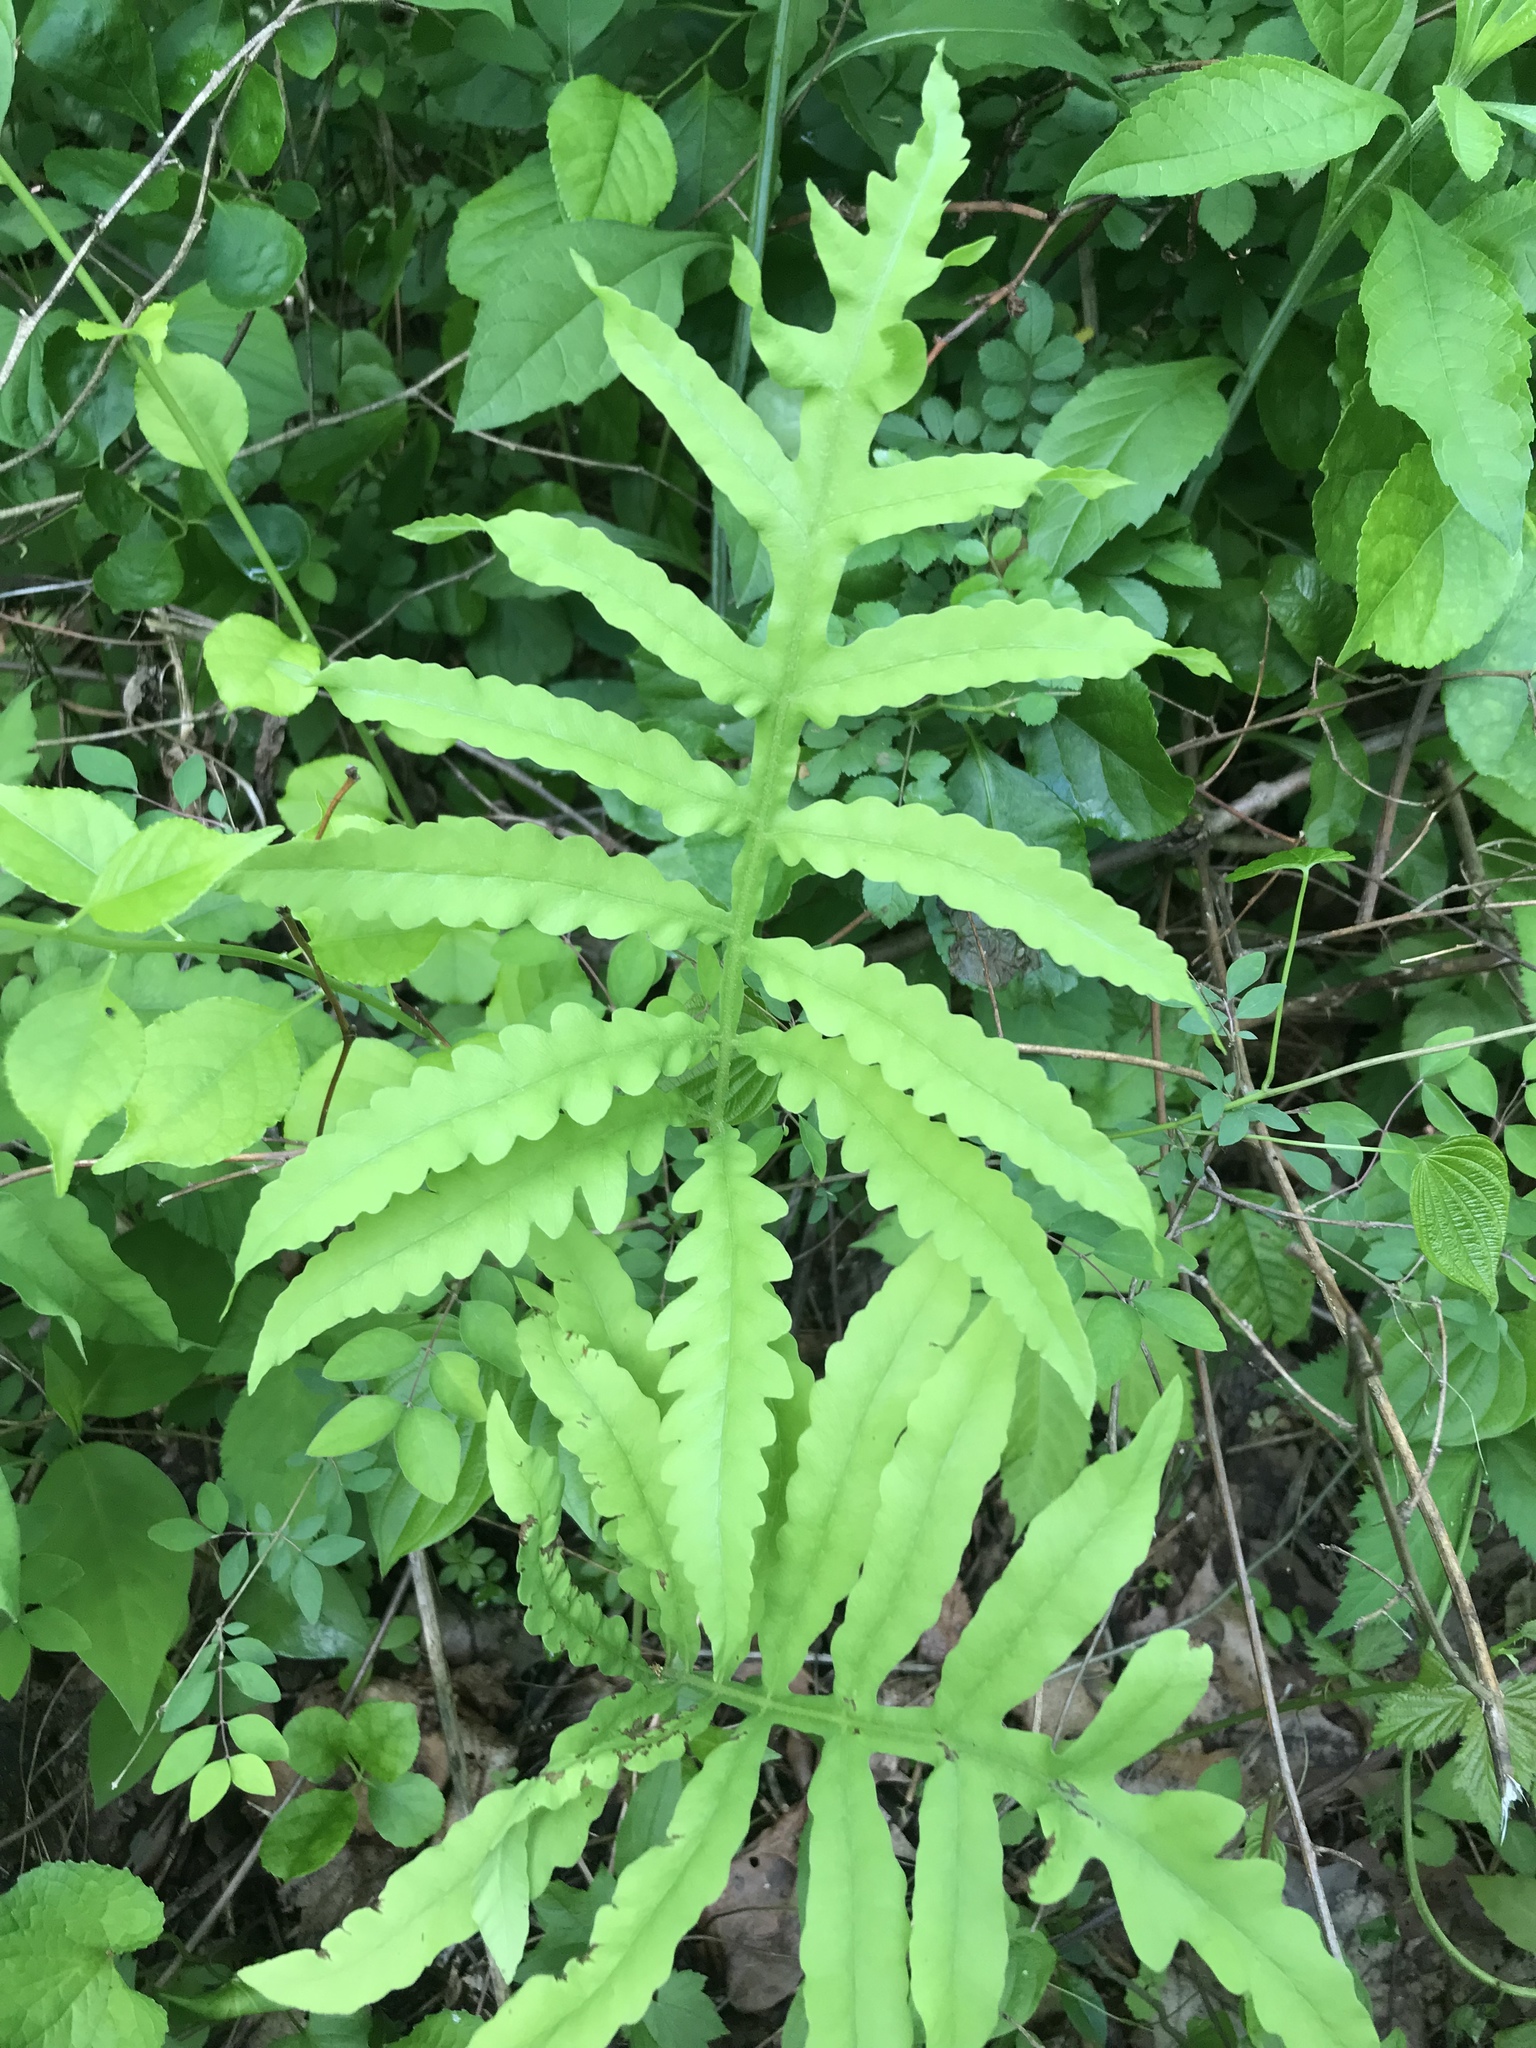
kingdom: Plantae
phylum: Tracheophyta
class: Polypodiopsida
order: Polypodiales
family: Onocleaceae
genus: Onoclea
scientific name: Onoclea sensibilis
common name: Sensitive fern
